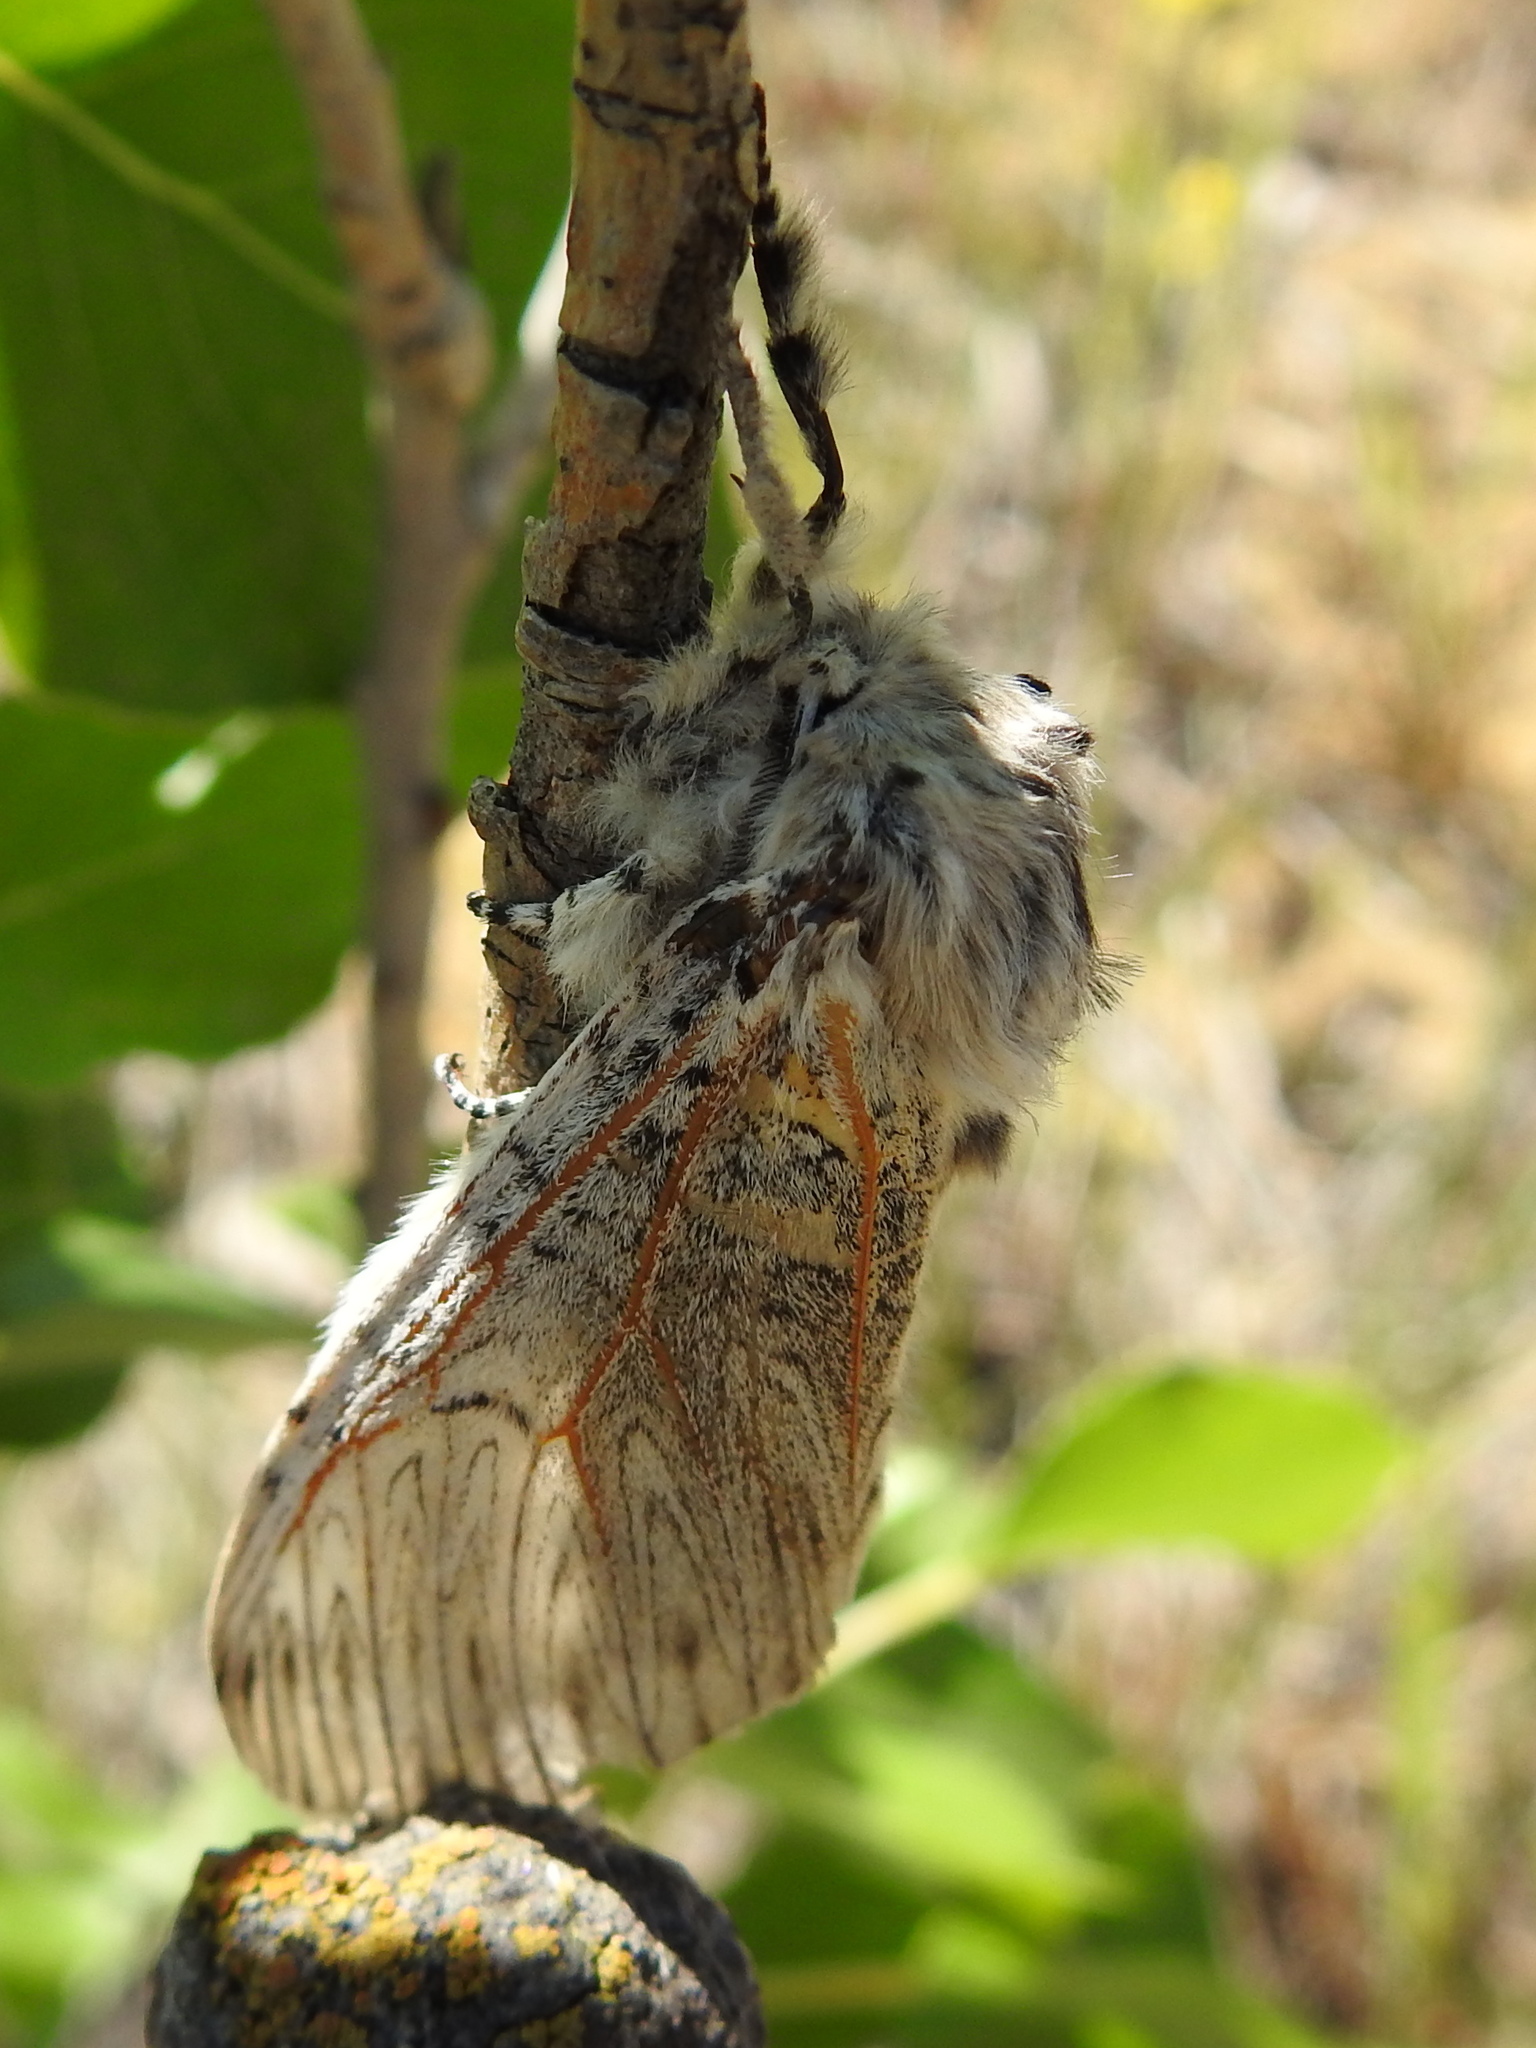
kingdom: Animalia
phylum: Arthropoda
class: Insecta
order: Lepidoptera
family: Notodontidae
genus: Cerura
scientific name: Cerura vinula
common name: Puss moth
